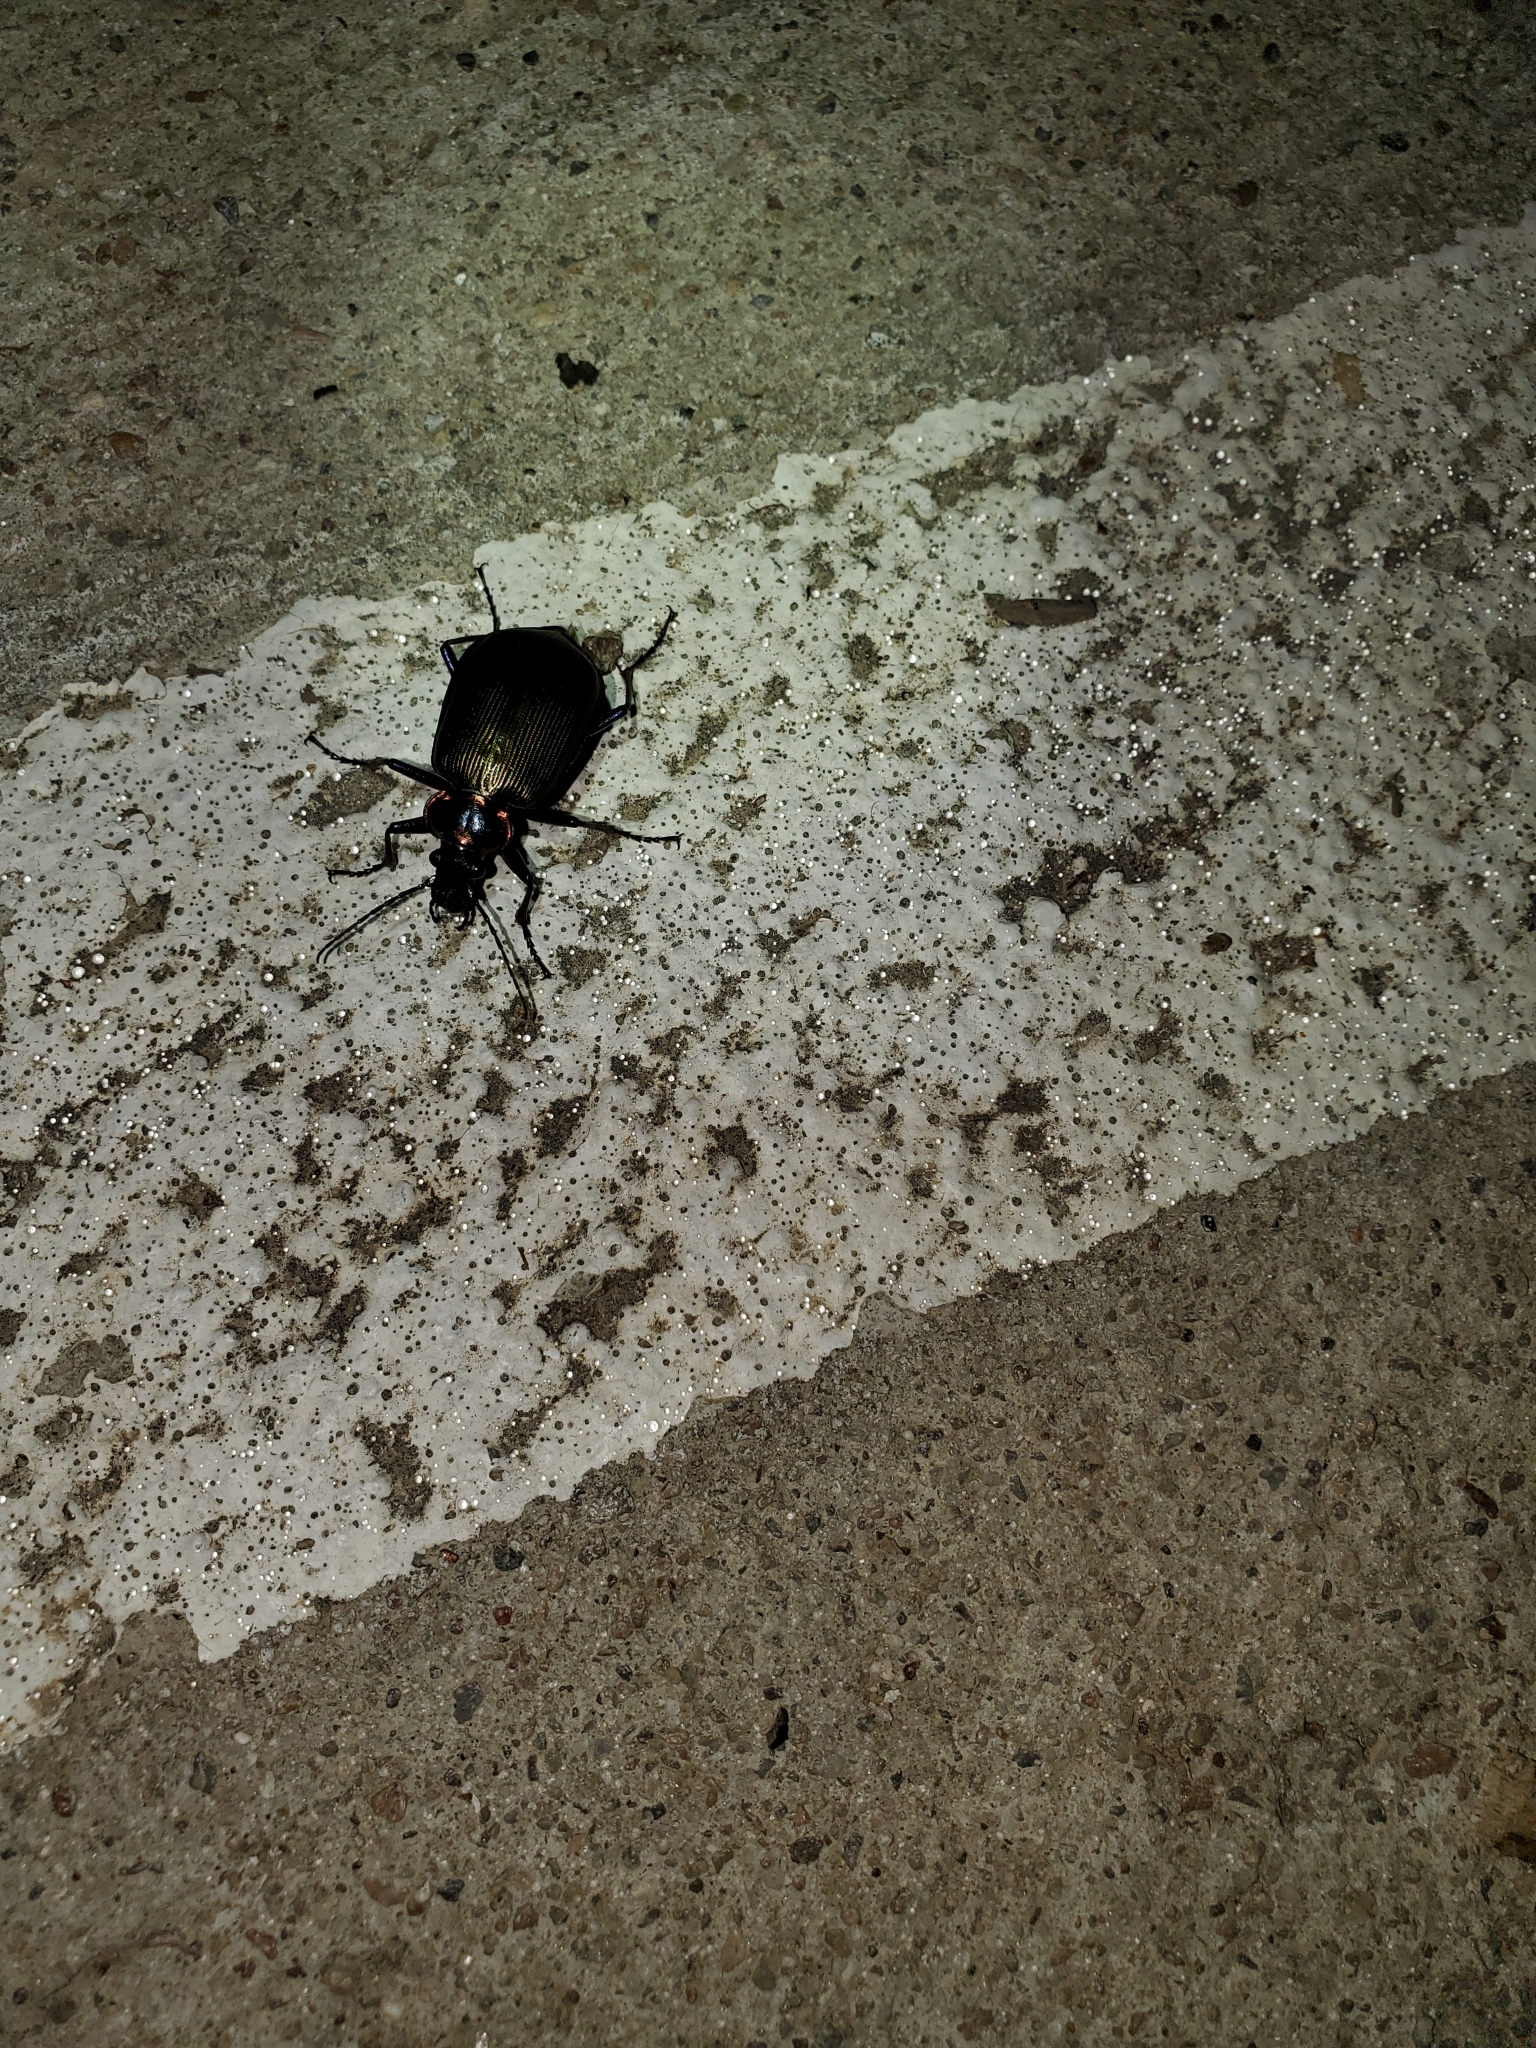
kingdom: Animalia
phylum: Arthropoda
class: Insecta
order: Coleoptera
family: Carabidae
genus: Calosoma
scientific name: Calosoma scrutator
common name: Fiery searcher beetle
